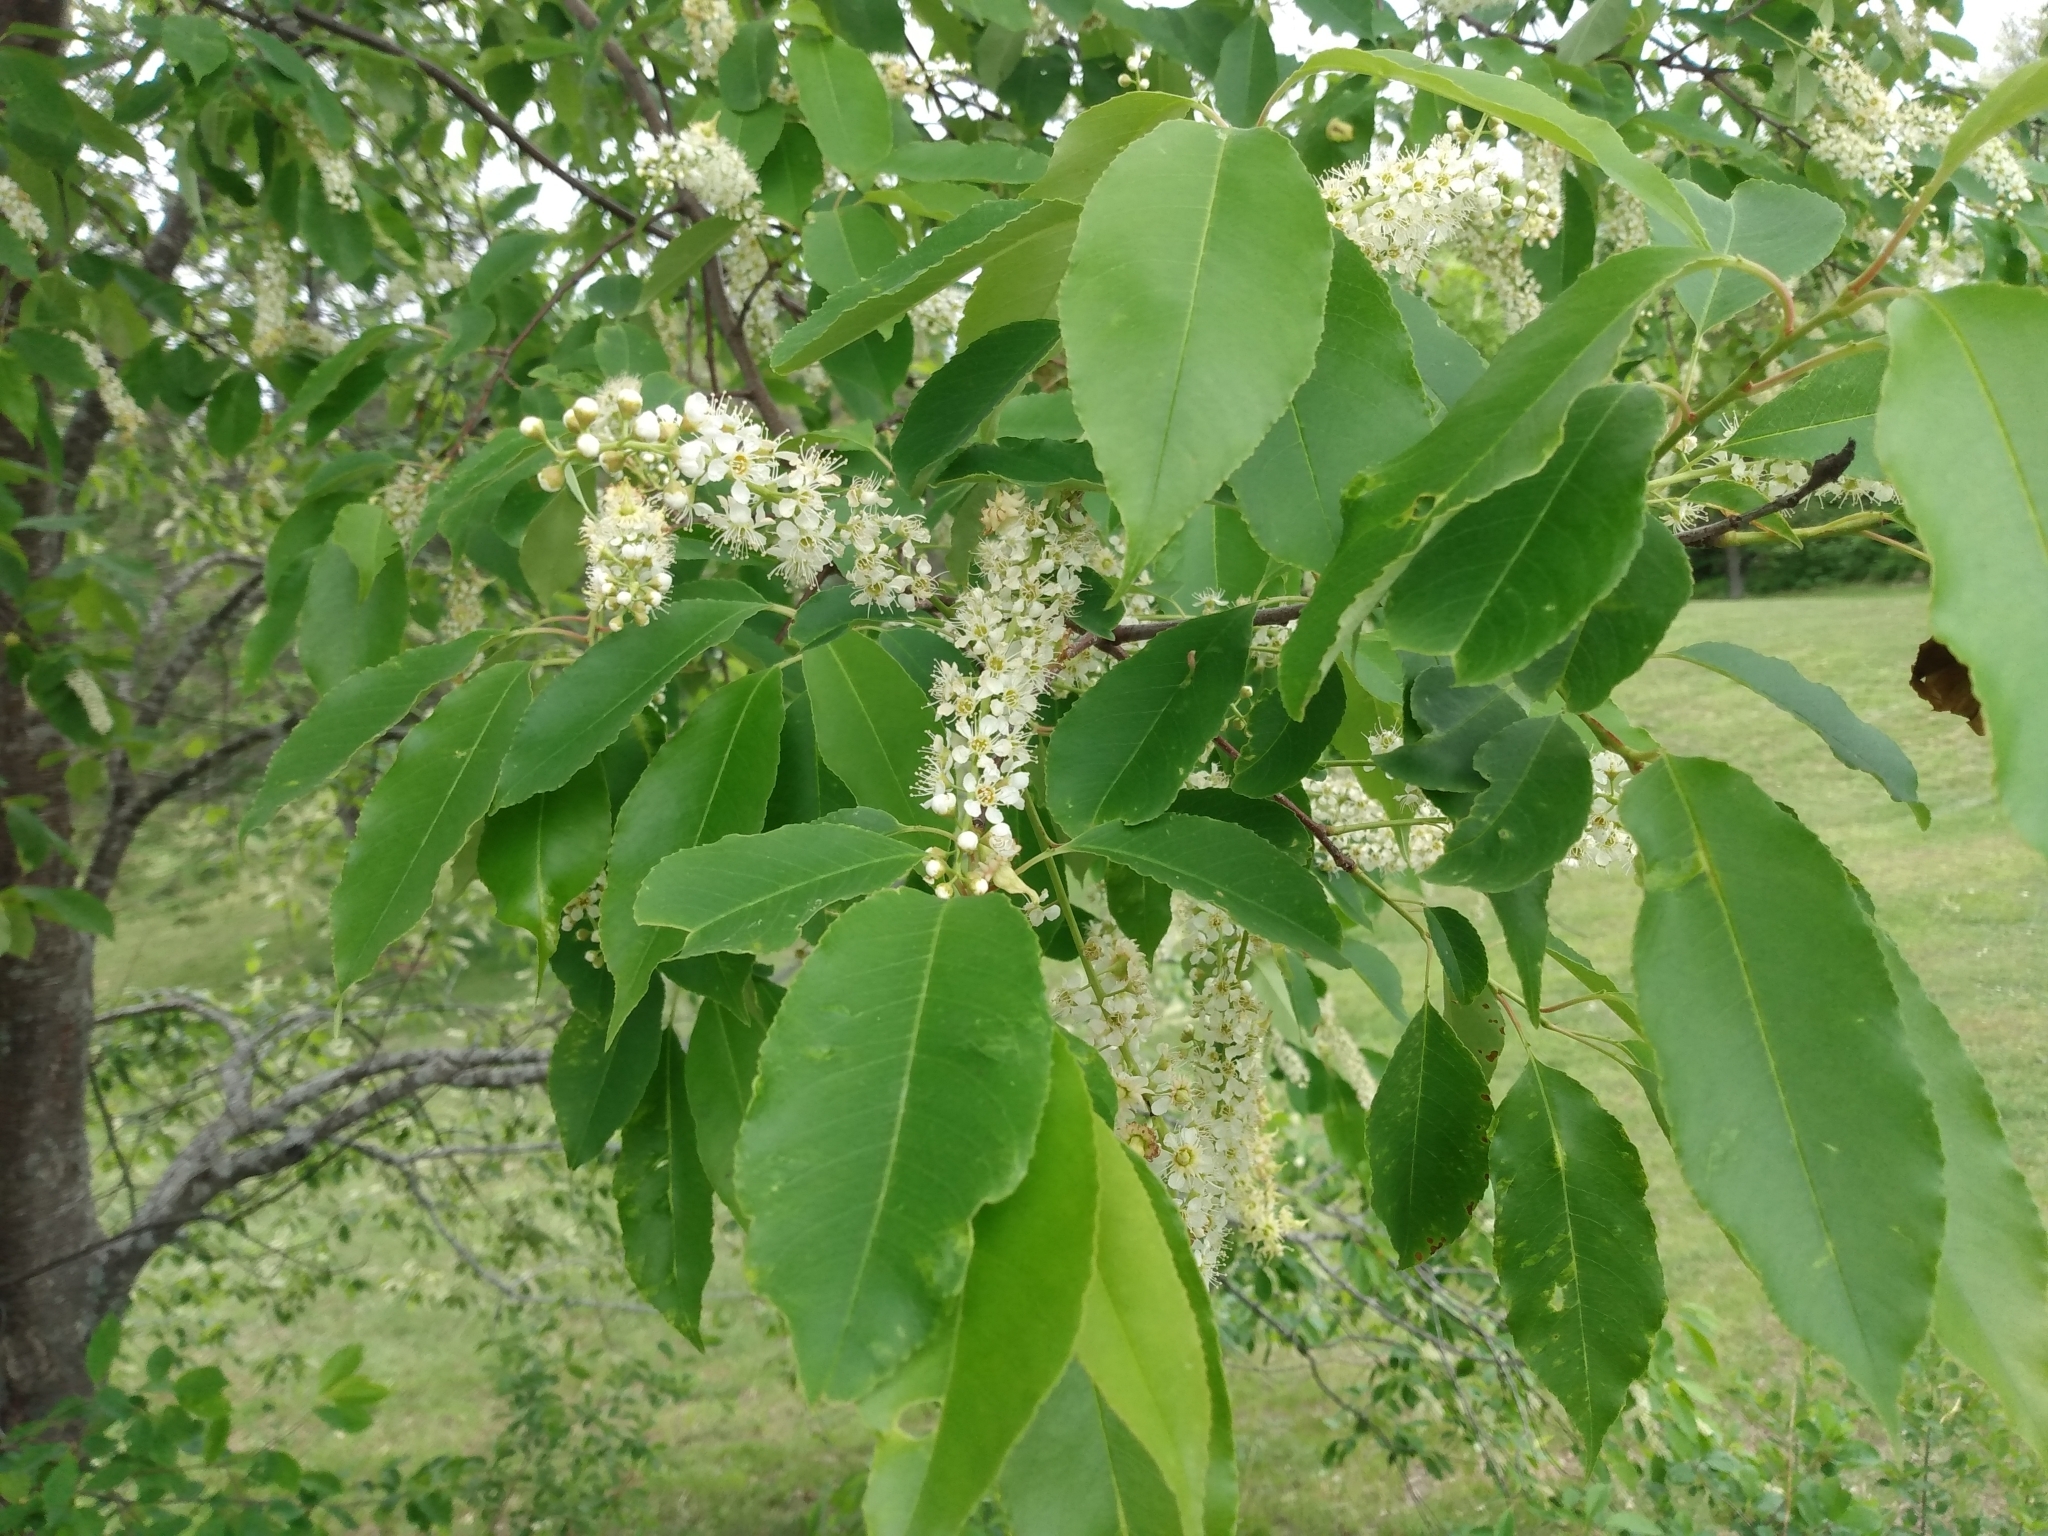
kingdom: Plantae
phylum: Tracheophyta
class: Magnoliopsida
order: Rosales
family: Rosaceae
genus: Prunus
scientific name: Prunus serotina
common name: Black cherry
